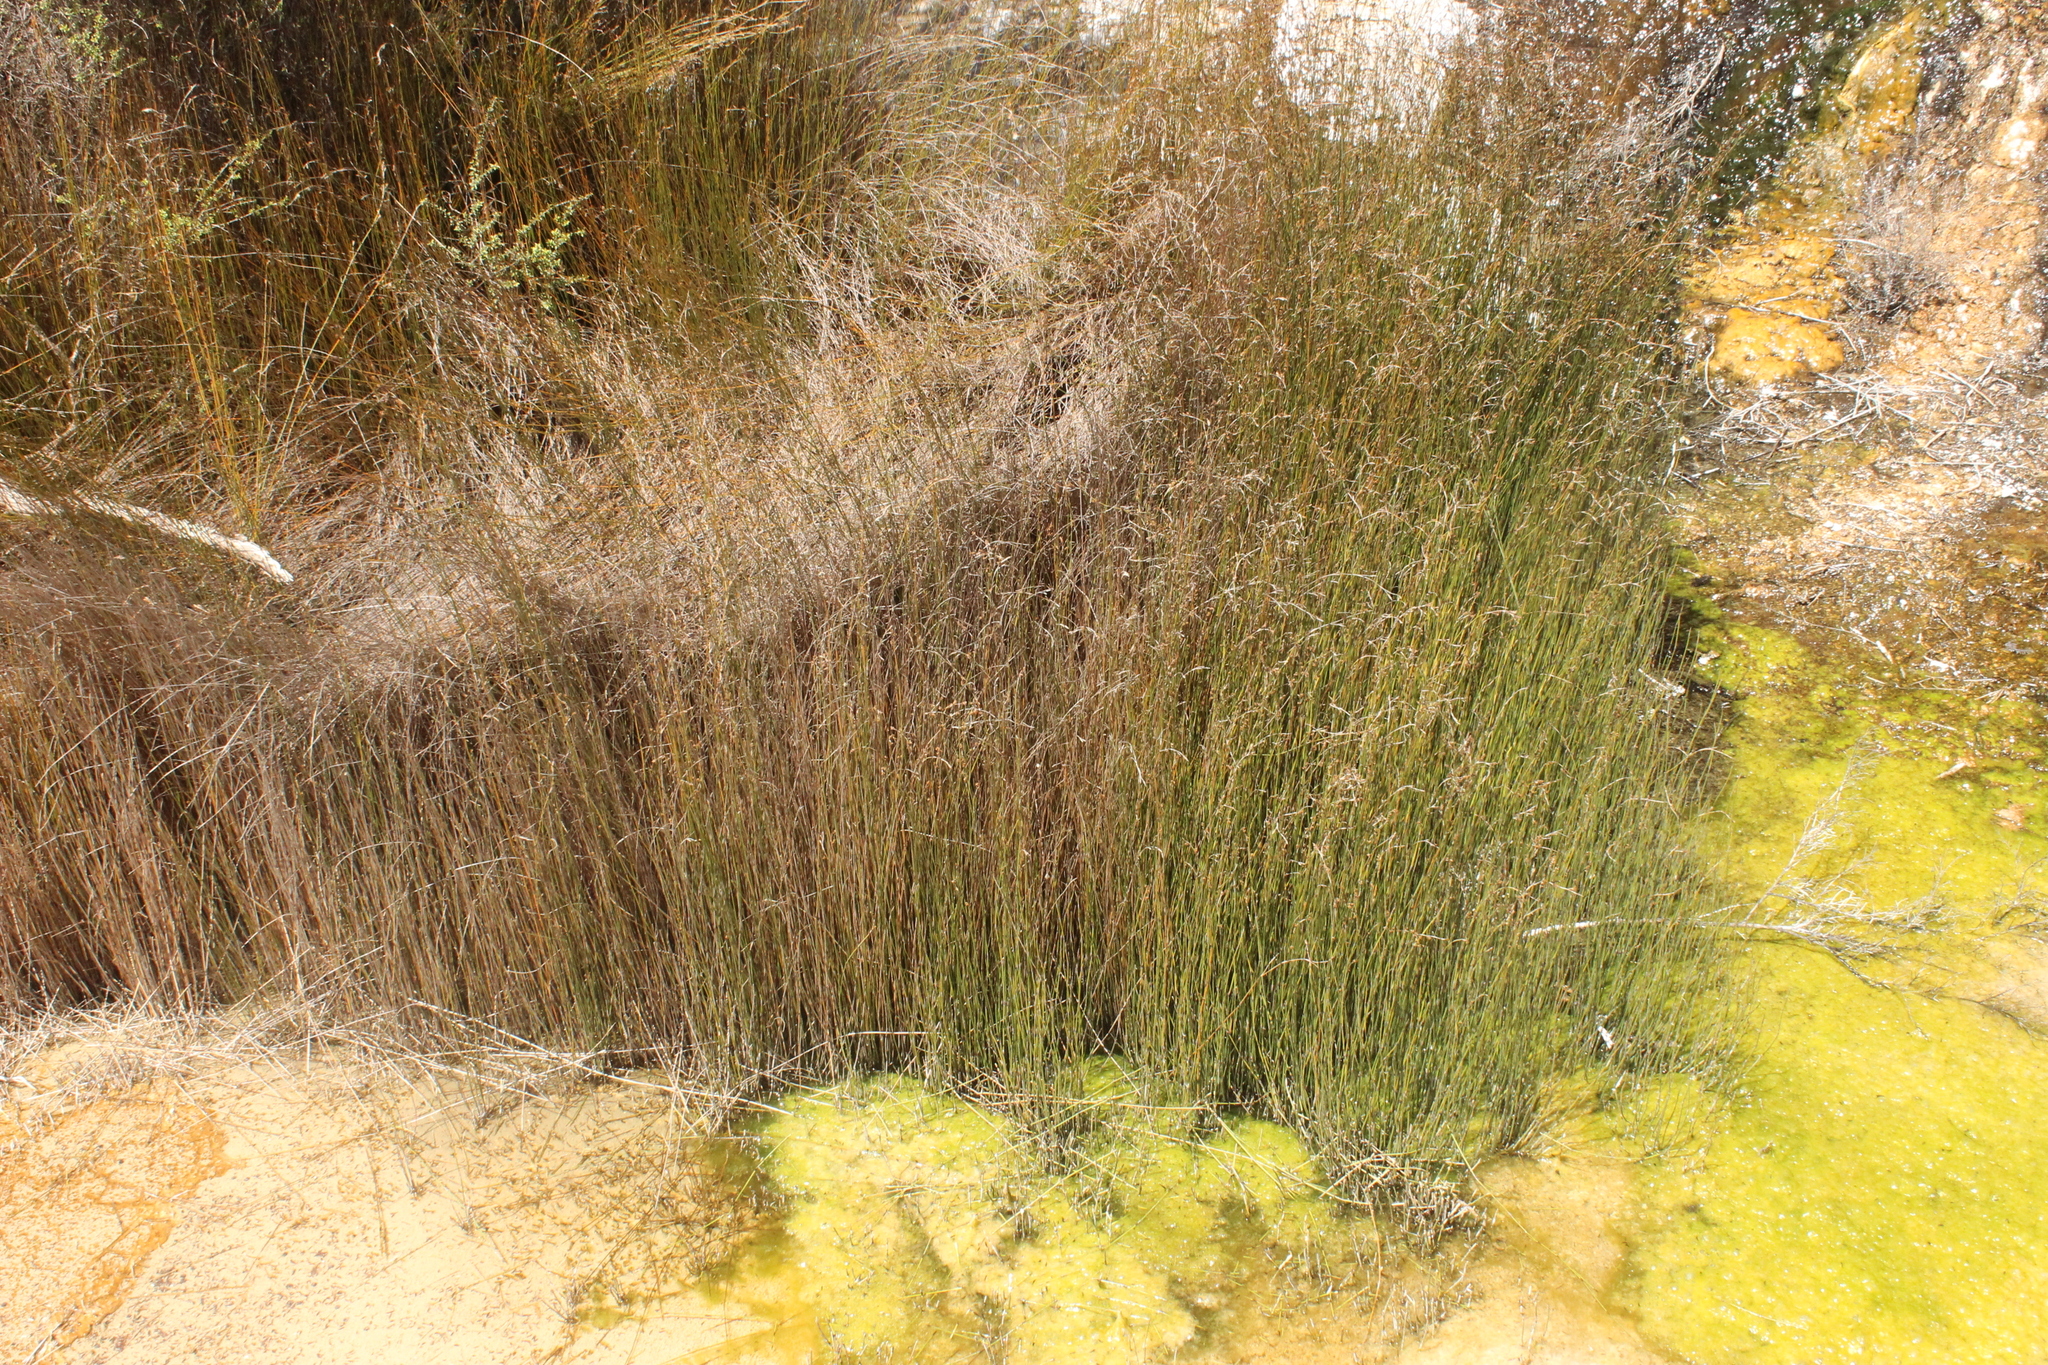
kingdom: Plantae
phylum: Tracheophyta
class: Liliopsida
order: Poales
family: Restionaceae
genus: Apodasmia
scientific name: Apodasmia similis
